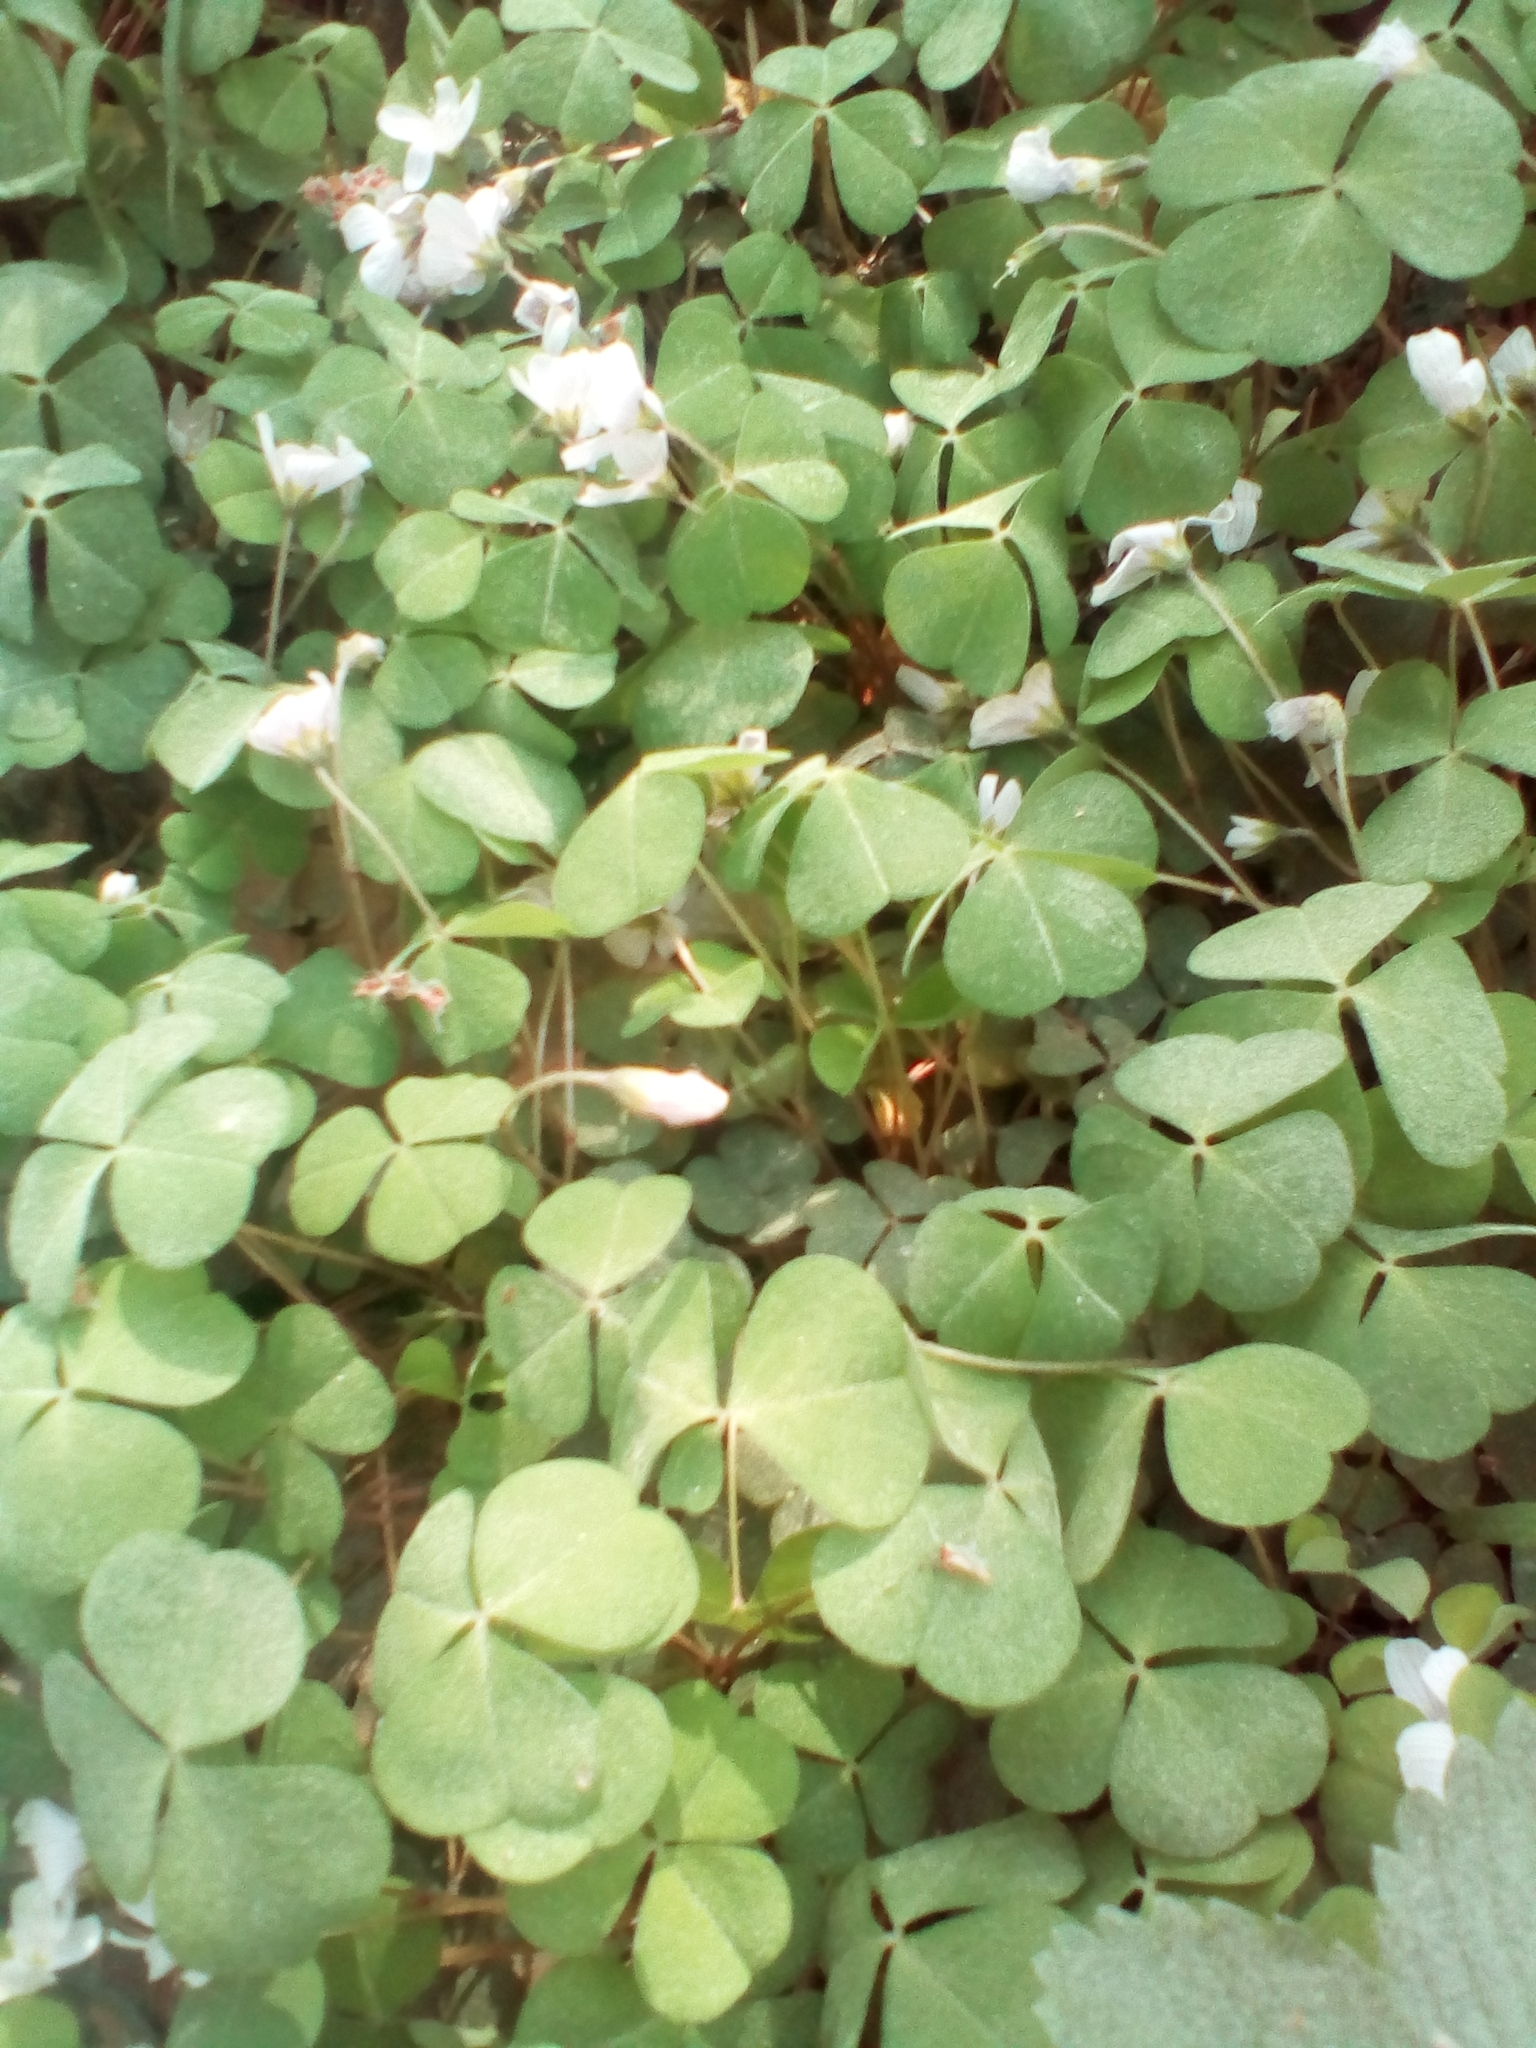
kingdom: Plantae
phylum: Tracheophyta
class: Magnoliopsida
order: Oxalidales
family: Oxalidaceae
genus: Oxalis
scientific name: Oxalis acetosella
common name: Wood-sorrel
